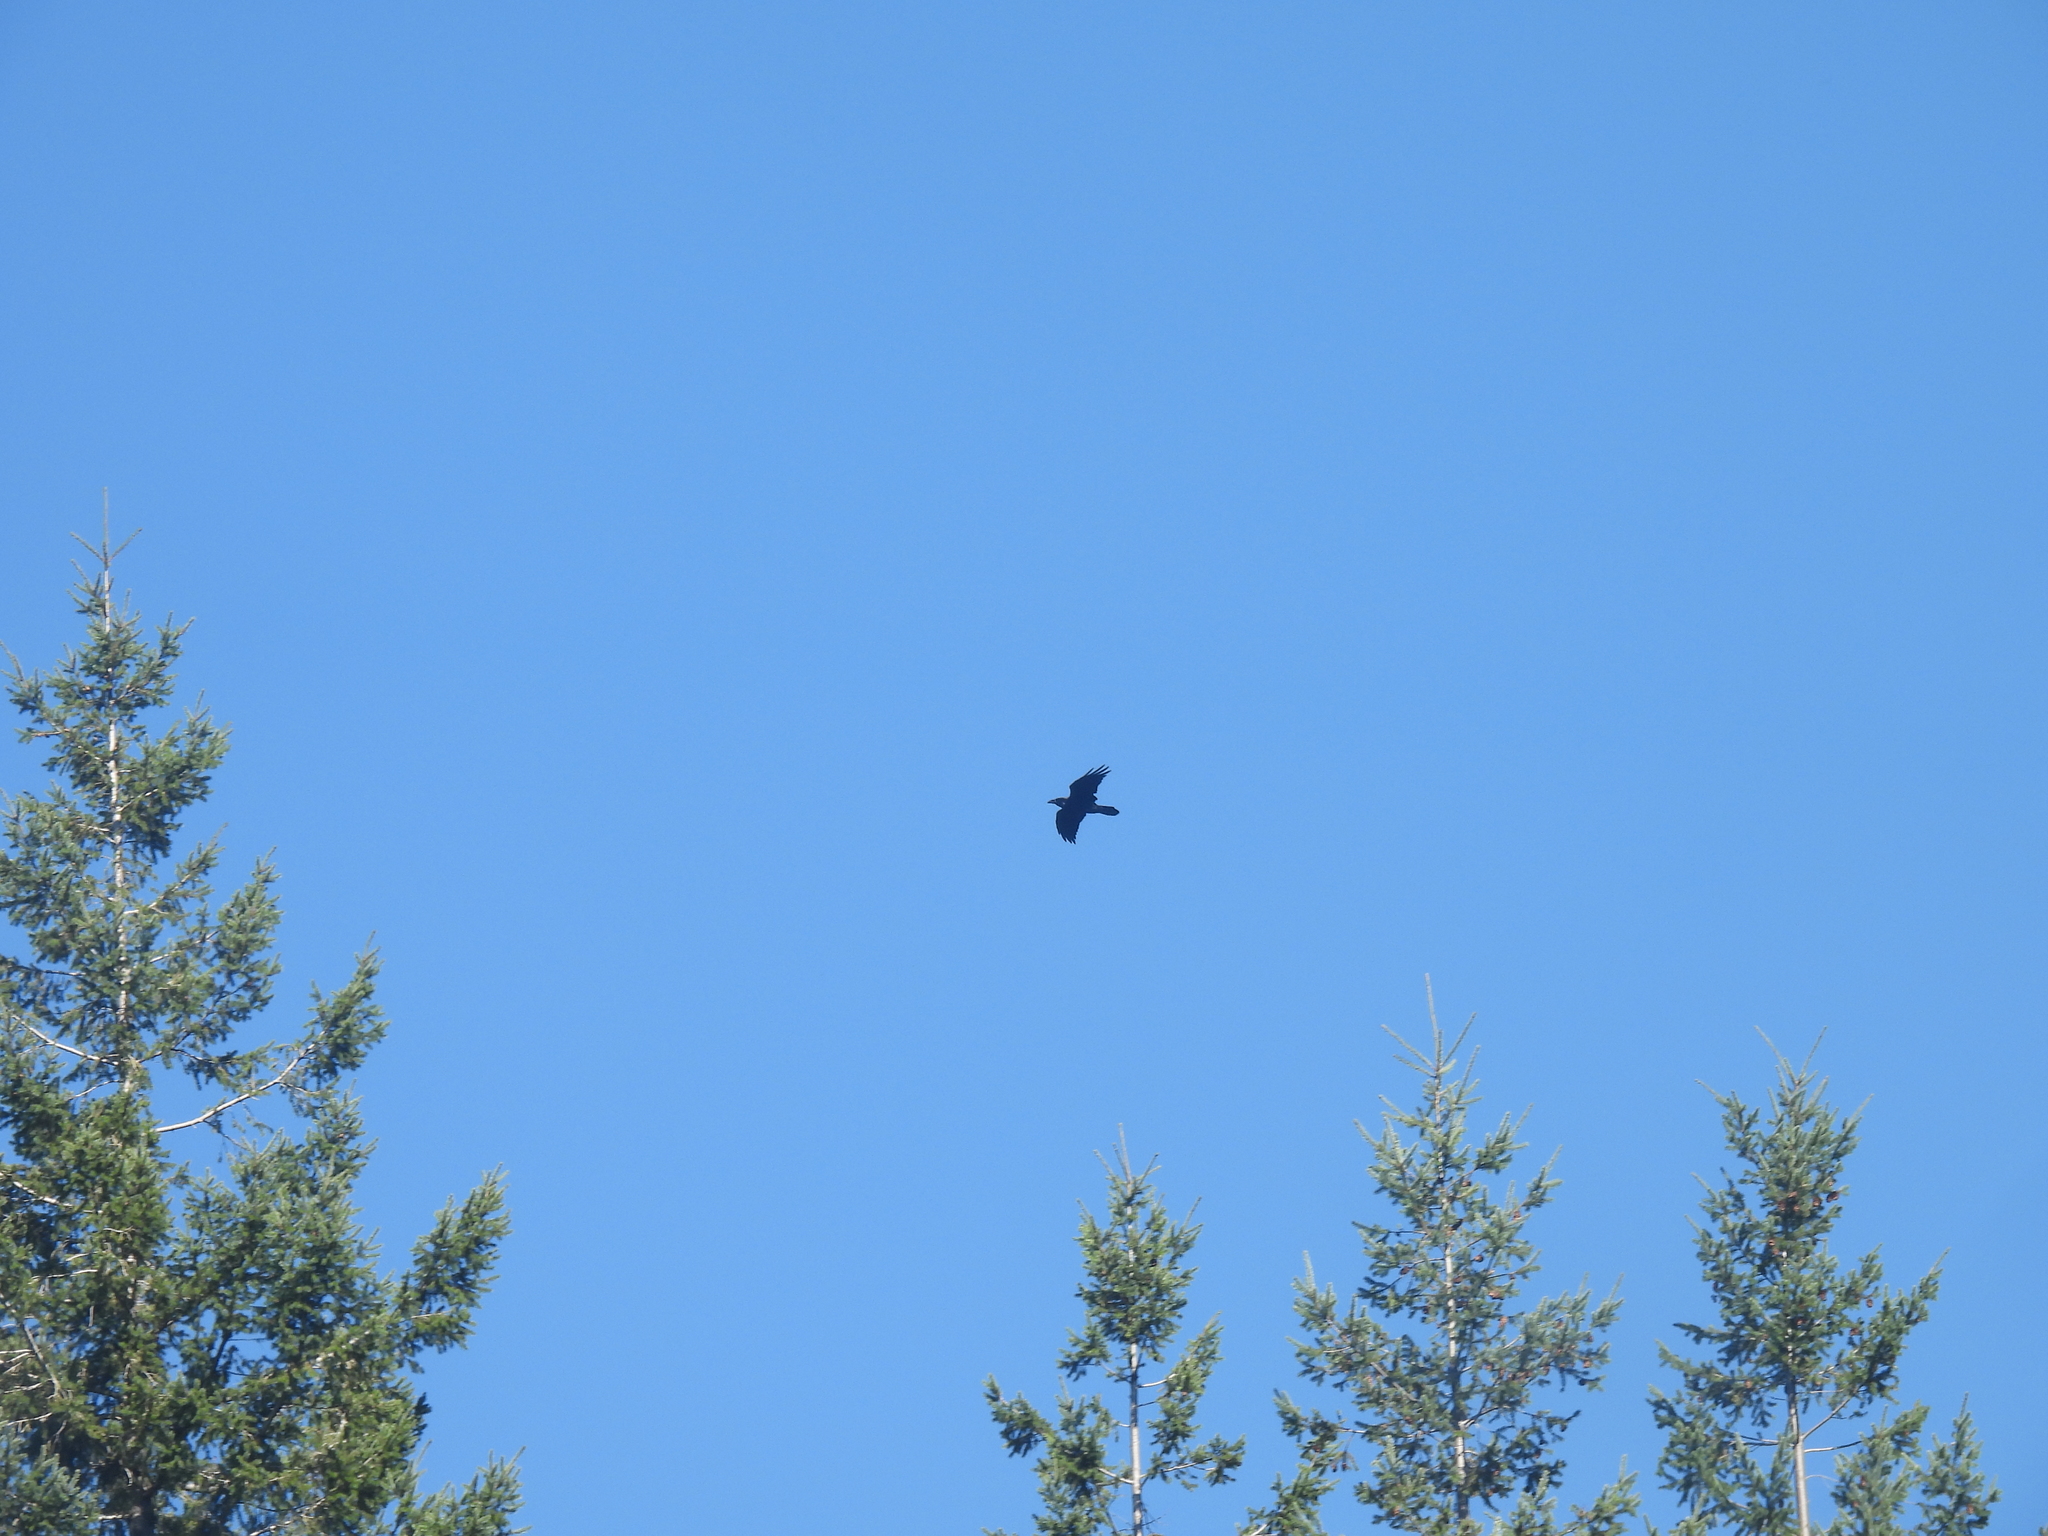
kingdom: Animalia
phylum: Chordata
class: Aves
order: Passeriformes
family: Corvidae
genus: Corvus
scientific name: Corvus corax
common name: Common raven
